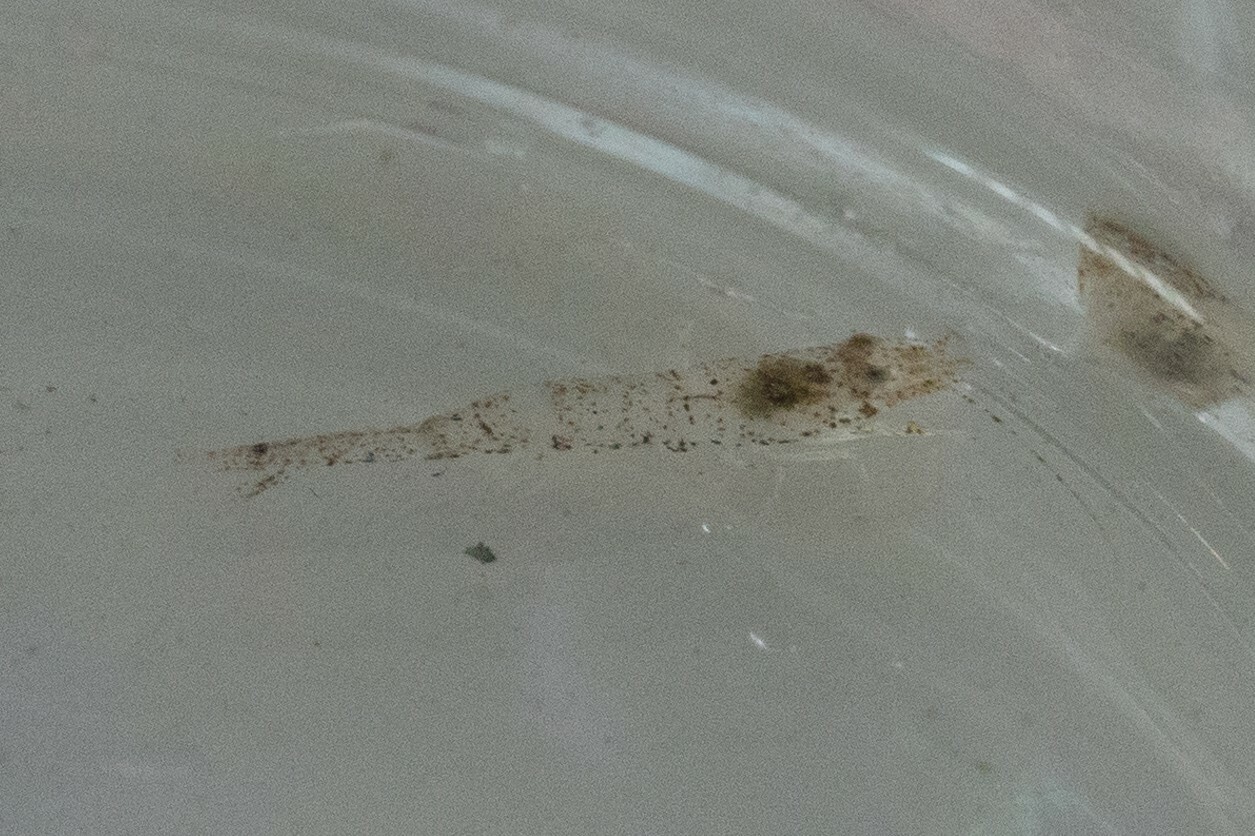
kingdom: Animalia
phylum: Arthropoda
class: Malacostraca
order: Decapoda
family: Crangonidae
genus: Crangon
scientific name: Crangon crangon
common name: Brown shrimp
